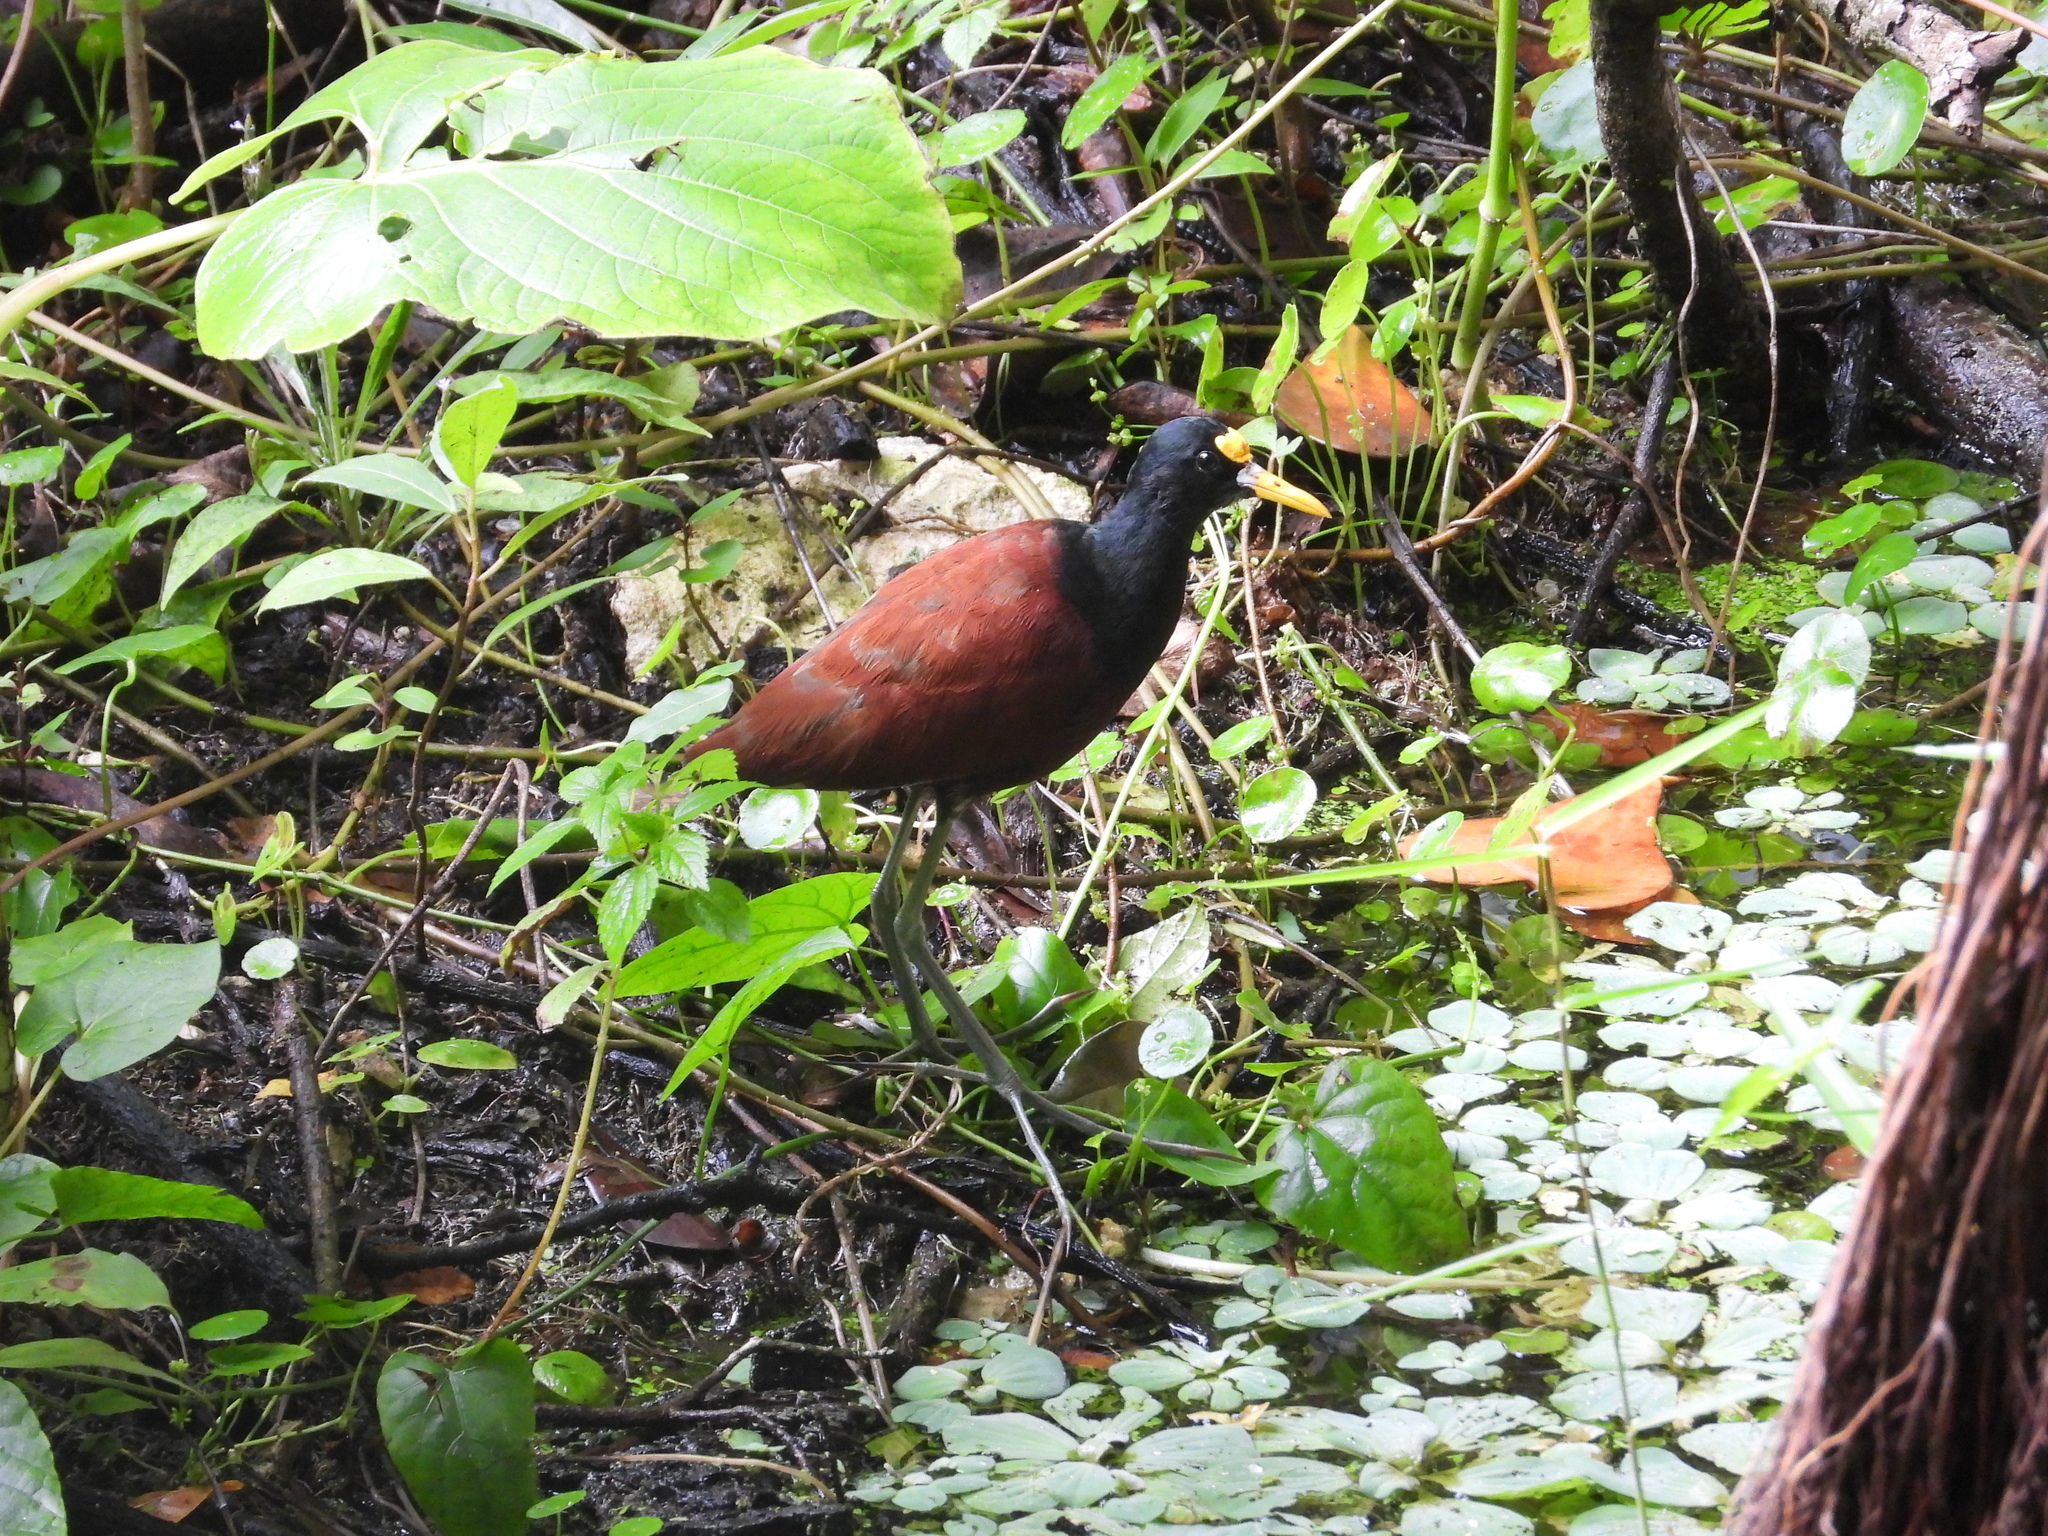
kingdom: Animalia
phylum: Chordata
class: Aves
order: Charadriiformes
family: Jacanidae
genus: Jacana
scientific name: Jacana spinosa
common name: Northern jacana
